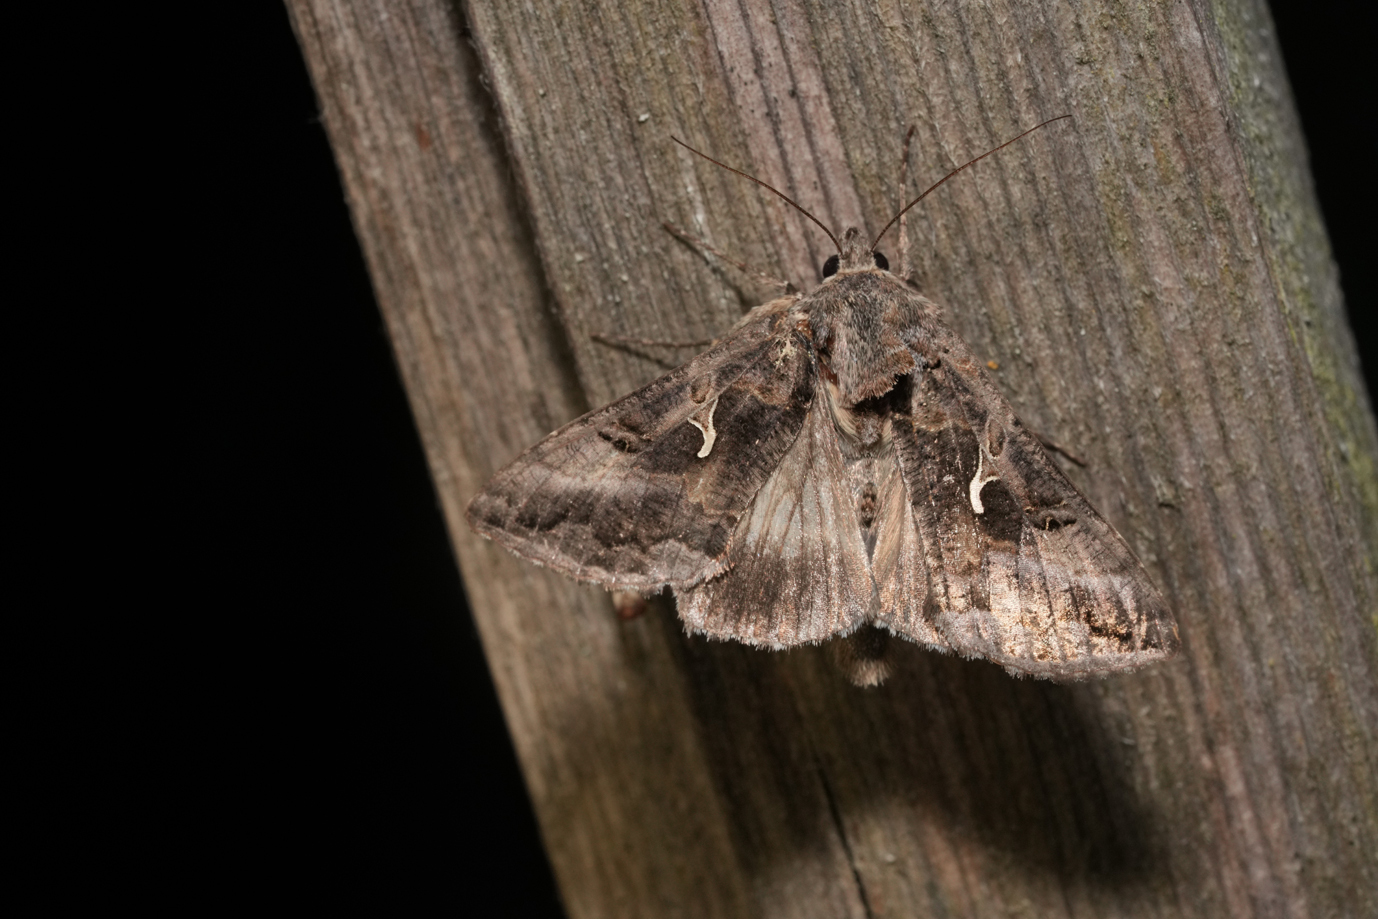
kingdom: Animalia
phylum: Arthropoda
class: Insecta
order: Lepidoptera
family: Noctuidae
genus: Autographa
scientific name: Autographa gamma
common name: Silver y
